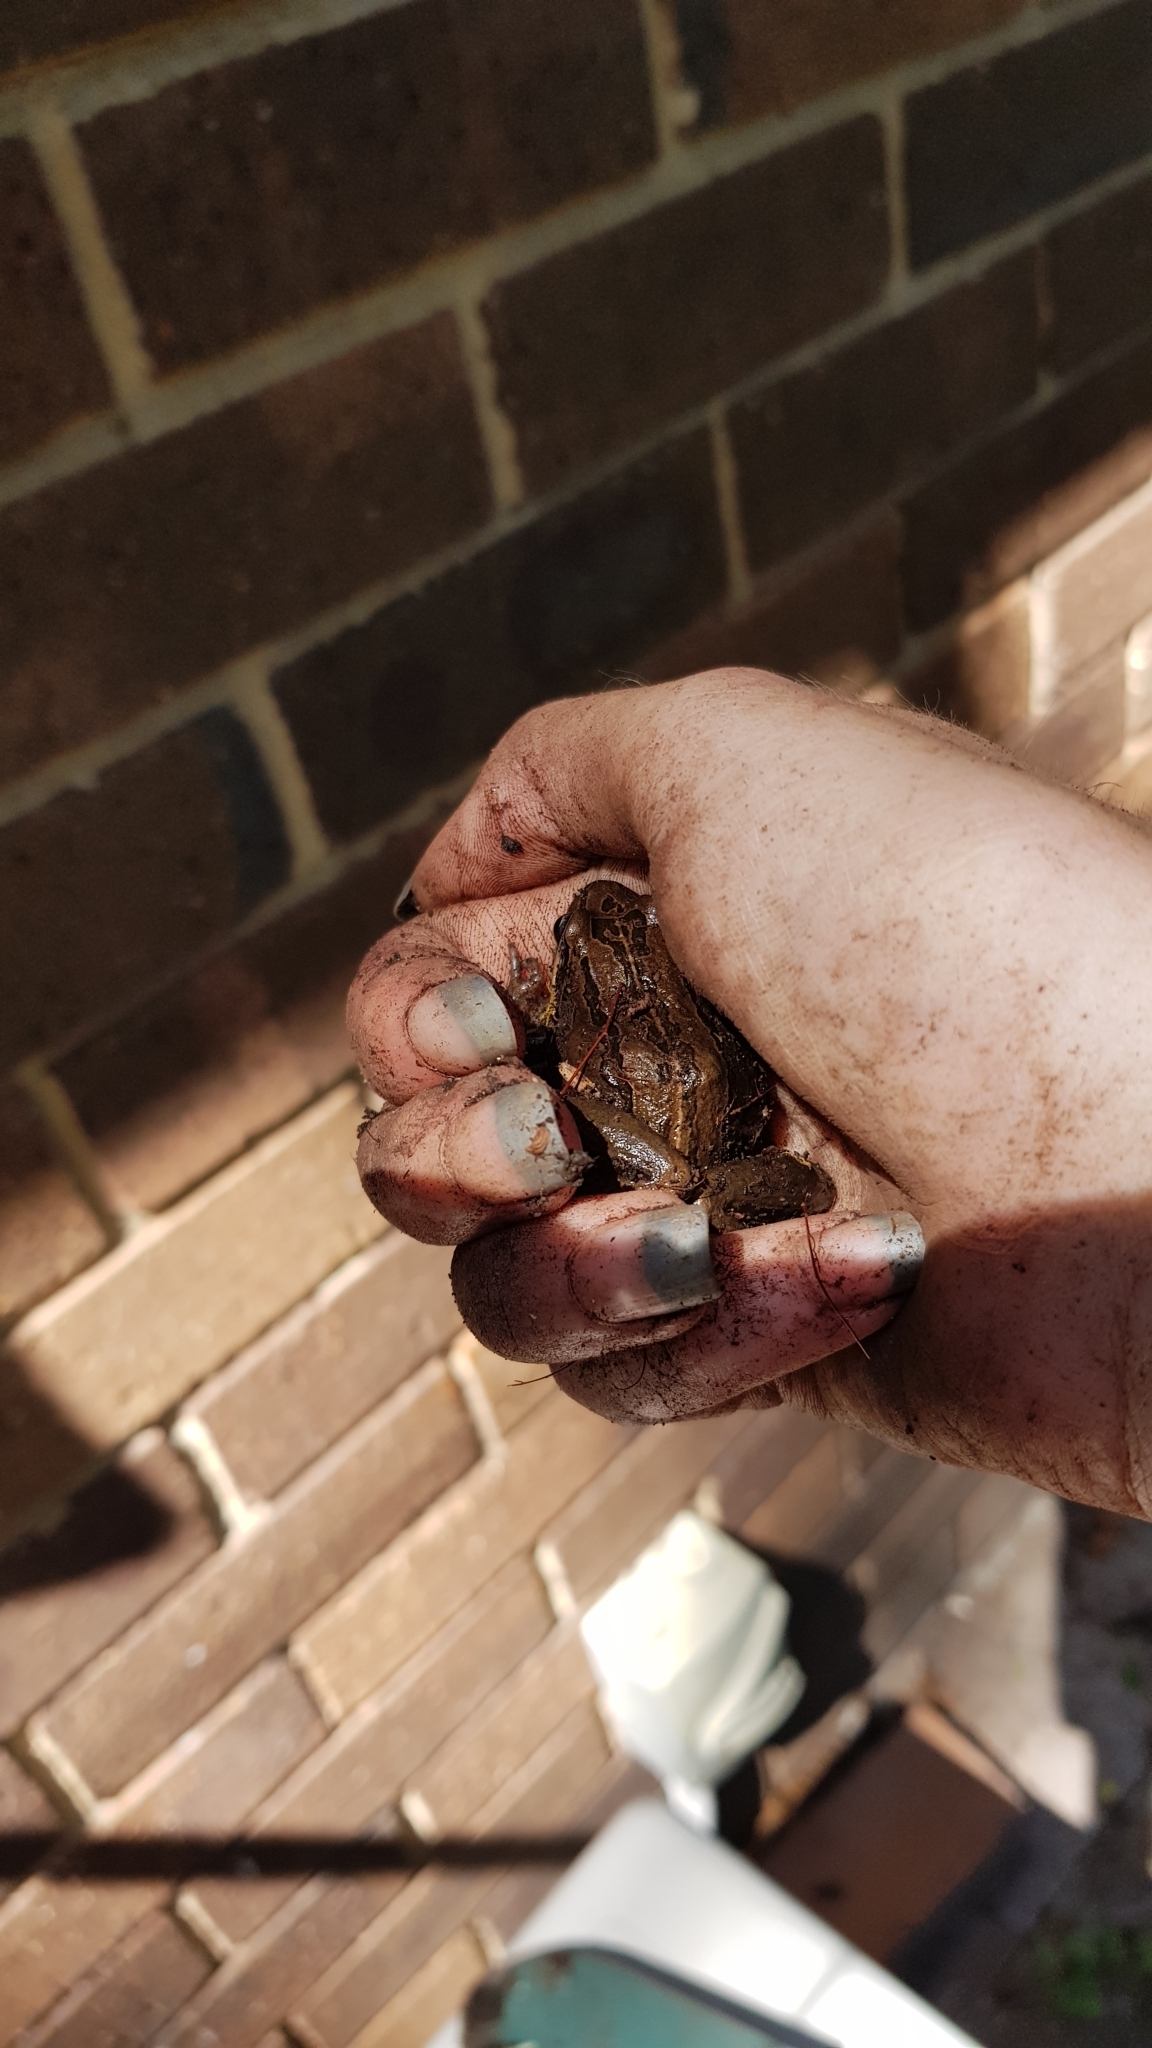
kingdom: Animalia
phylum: Chordata
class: Amphibia
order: Anura
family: Limnodynastidae
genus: Limnodynastes
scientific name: Limnodynastes peronii
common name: Brown frog
